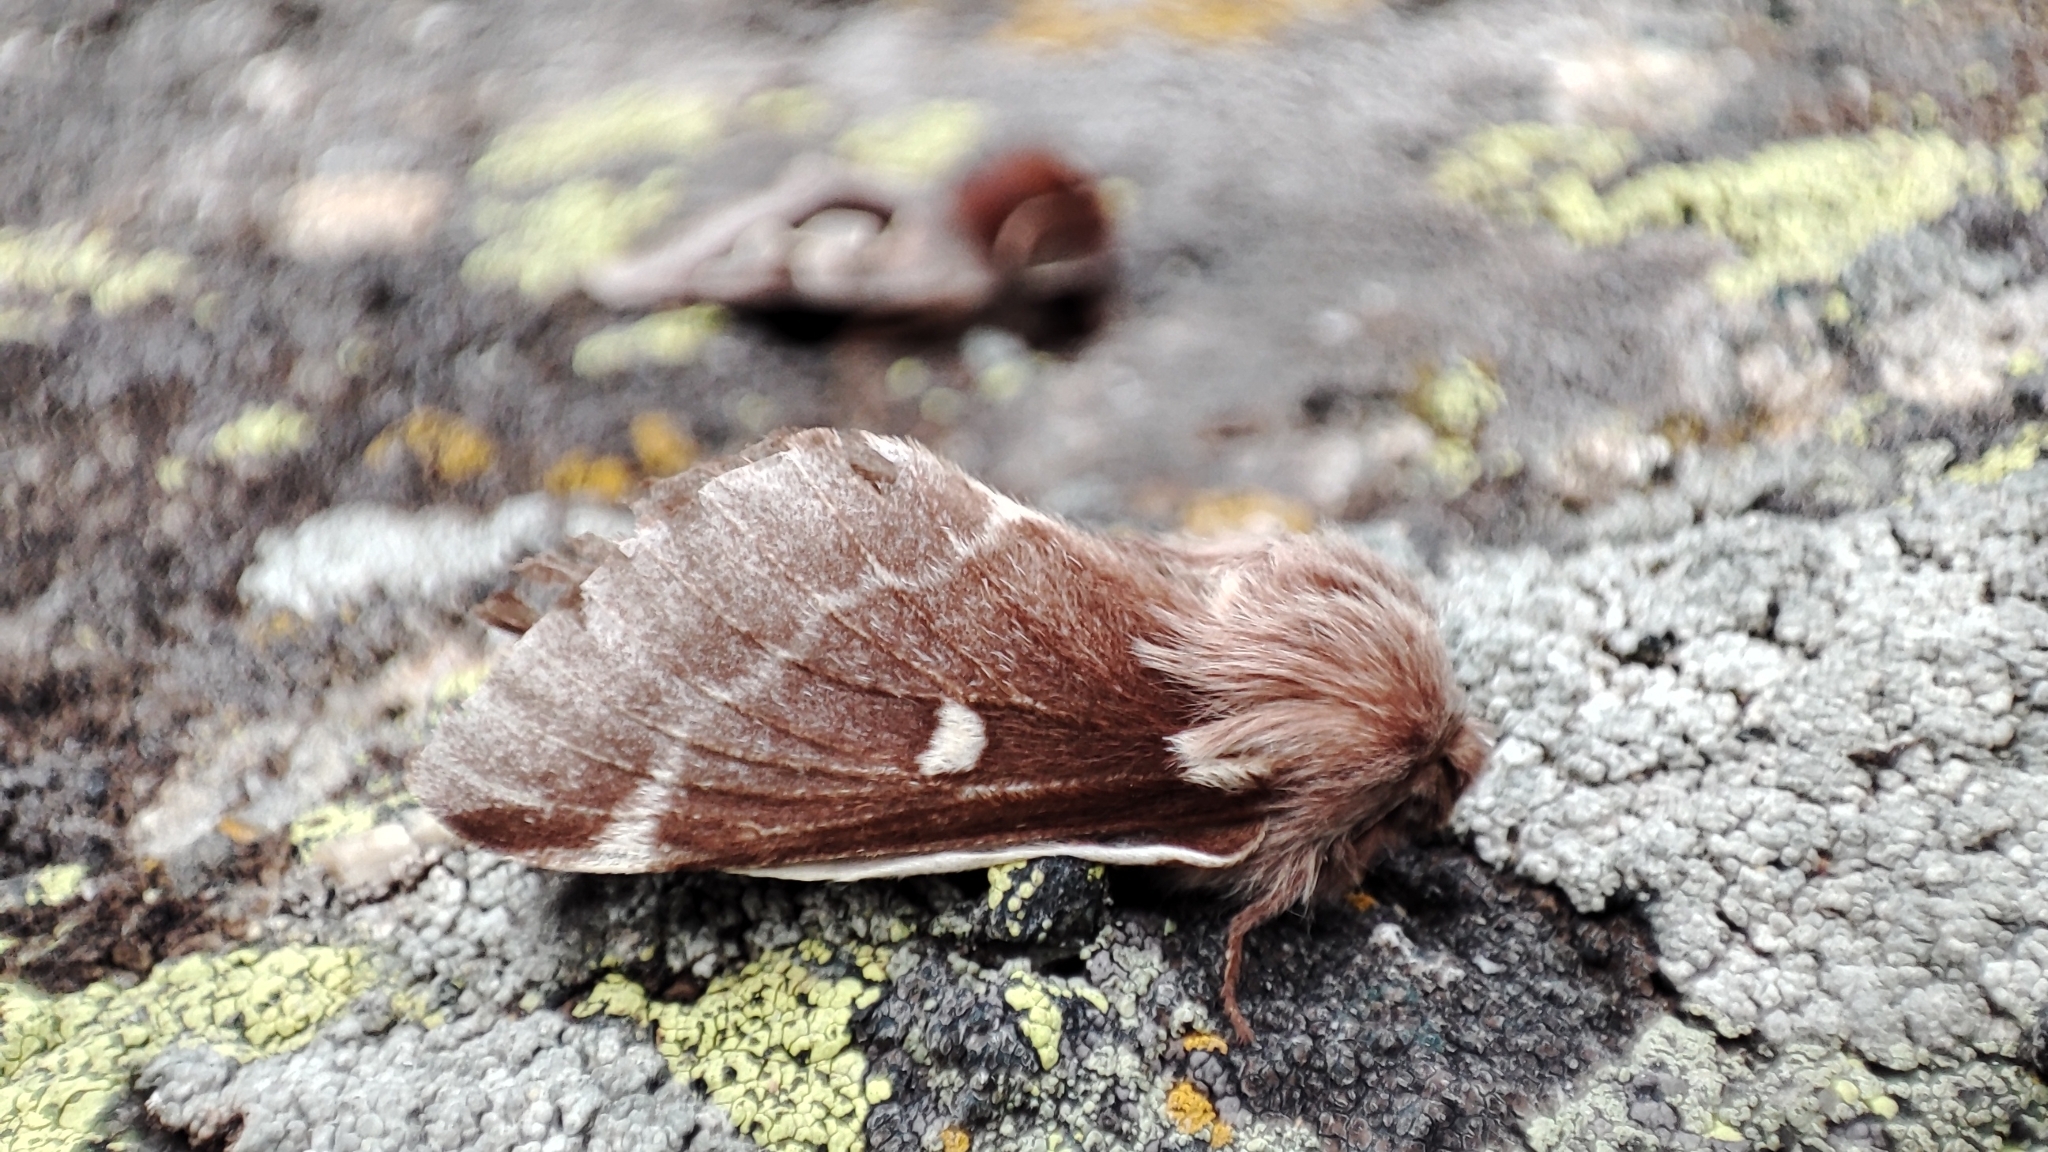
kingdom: Animalia
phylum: Arthropoda
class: Insecta
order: Lepidoptera
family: Lasiocampidae
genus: Eriogaster
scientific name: Eriogaster lanestris
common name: Small eggar
